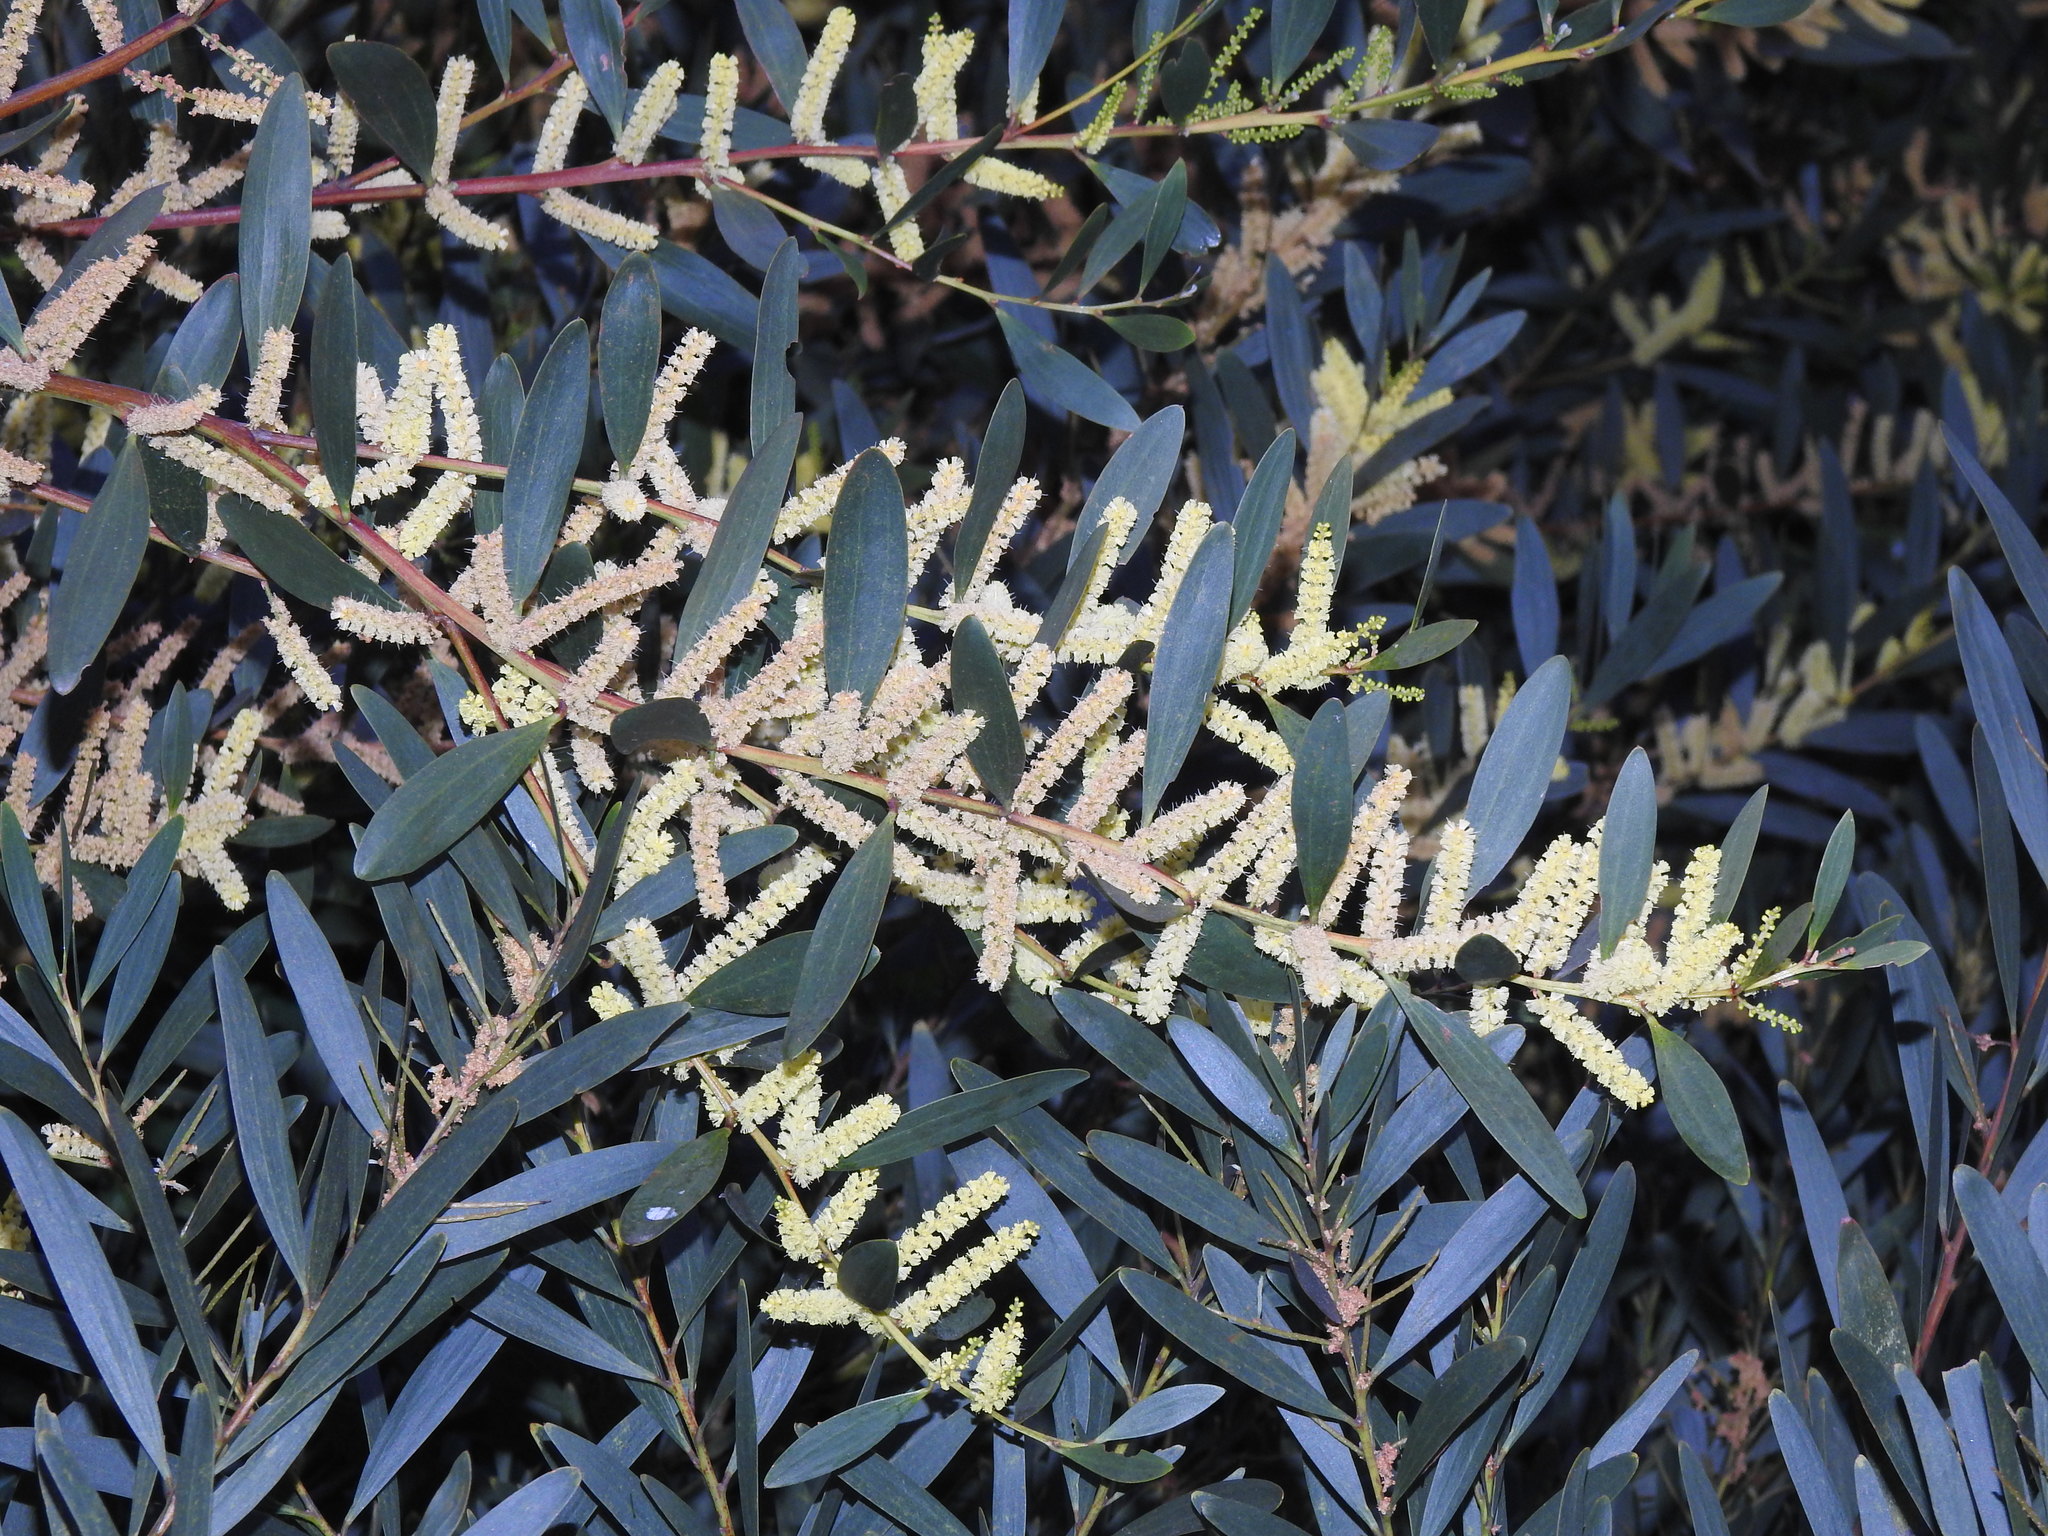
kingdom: Plantae
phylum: Tracheophyta
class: Magnoliopsida
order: Fabales
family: Fabaceae
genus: Acacia
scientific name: Acacia longifolia
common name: Sydney golden wattle
